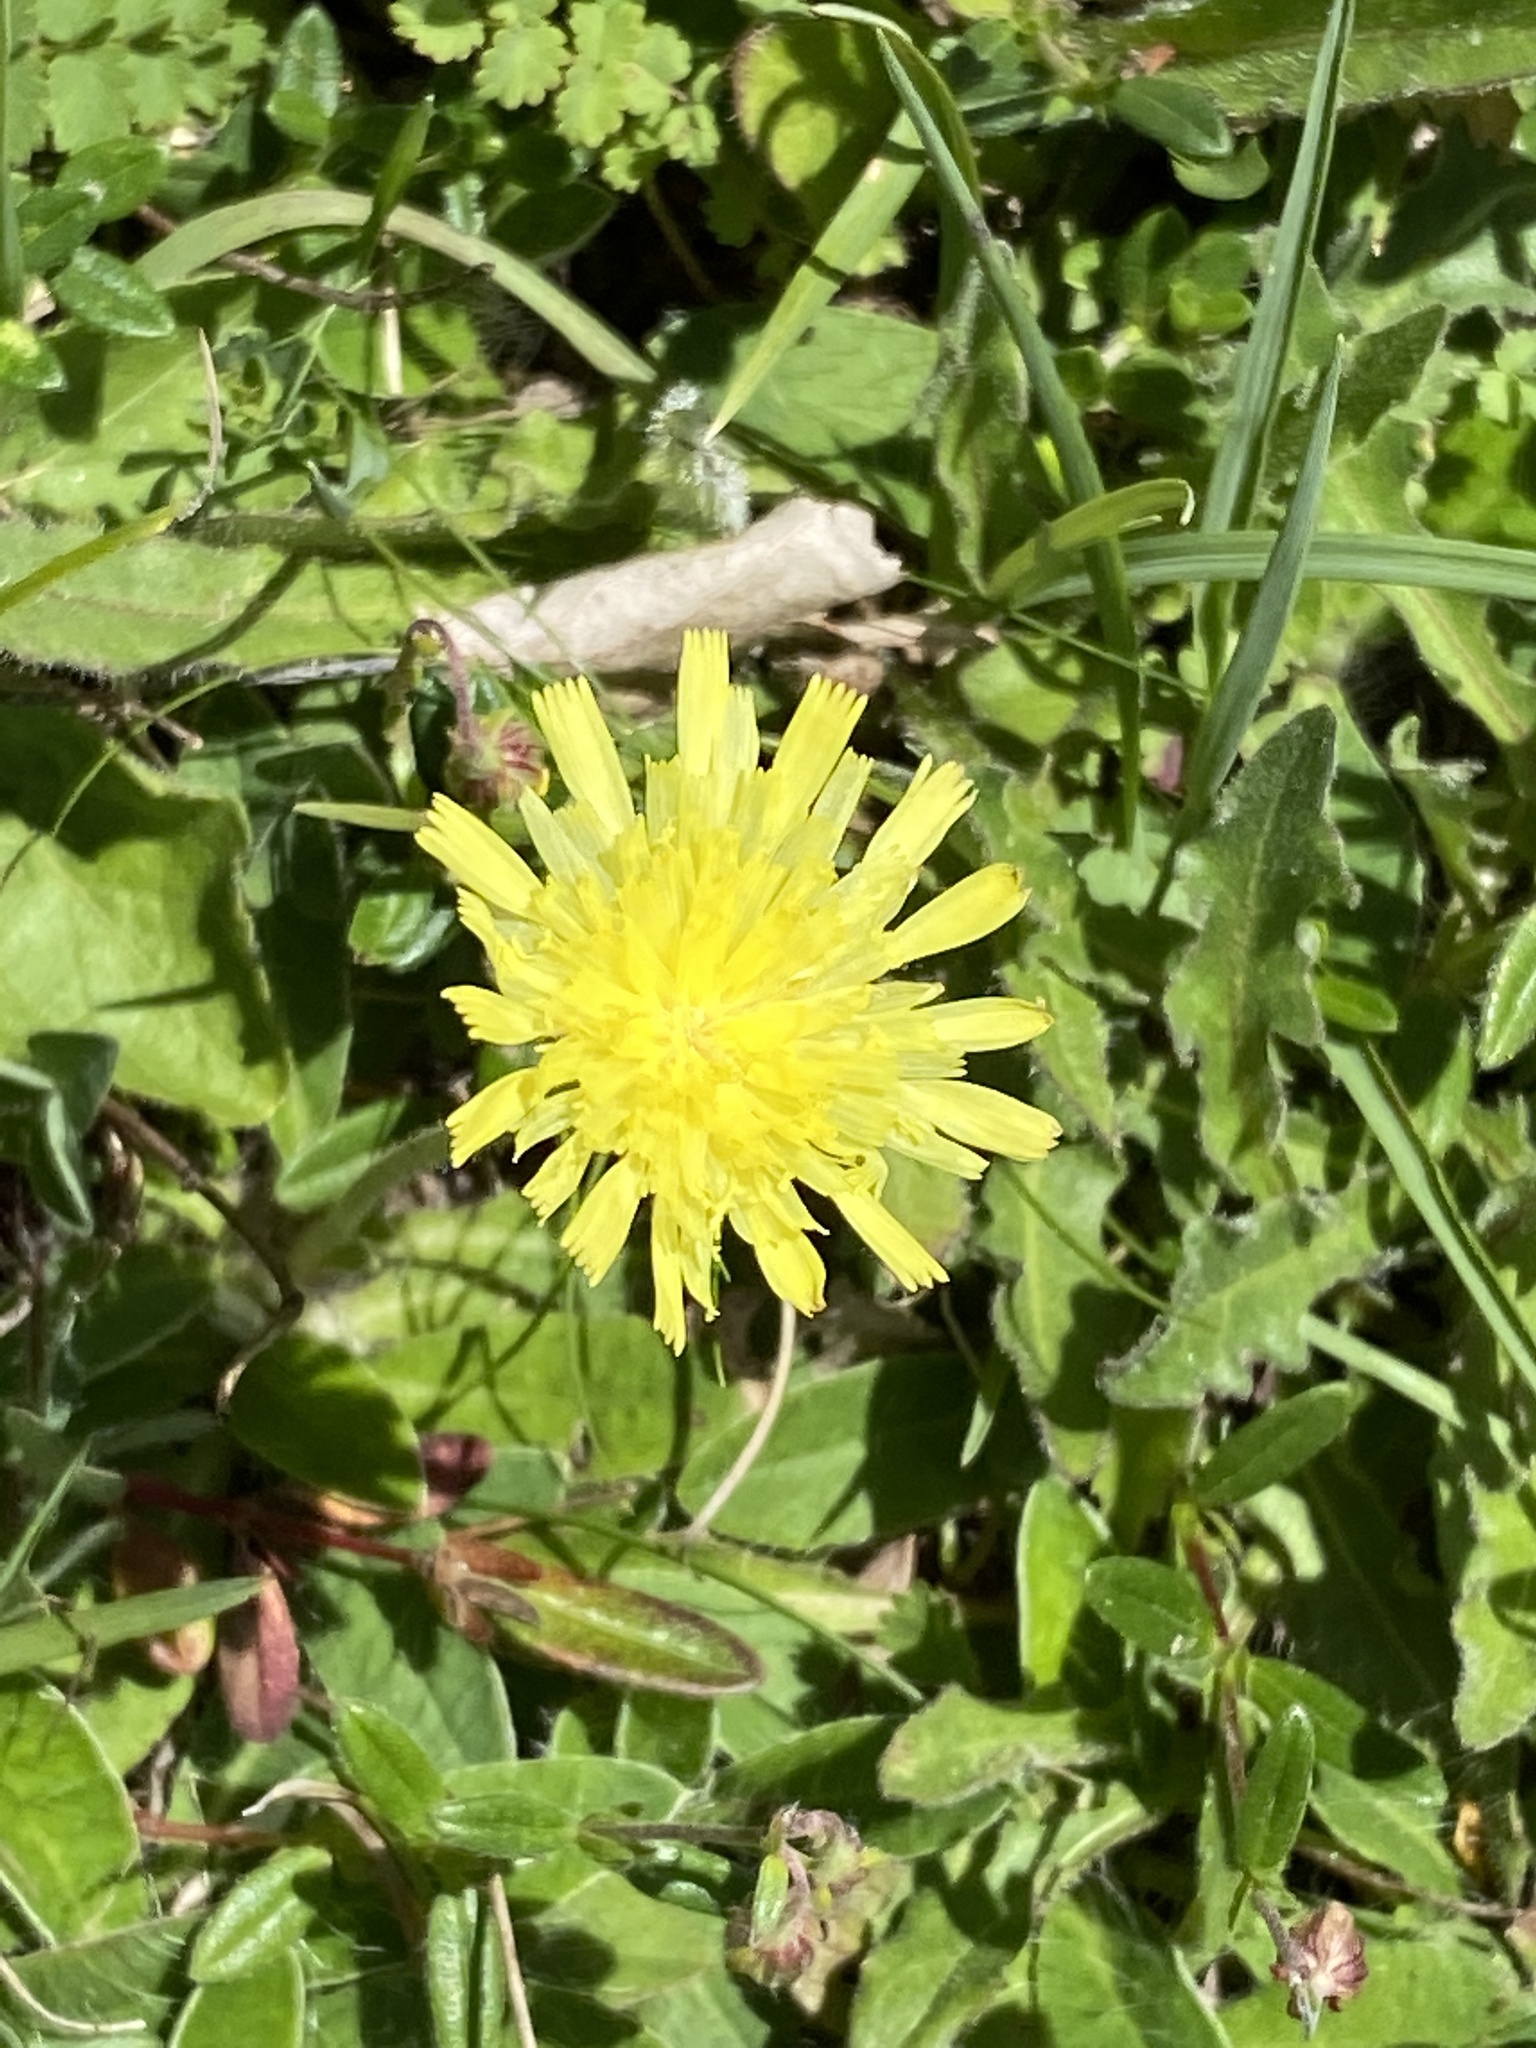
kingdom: Plantae
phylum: Tracheophyta
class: Magnoliopsida
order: Asterales
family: Asteraceae
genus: Pilosella
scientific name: Pilosella officinarum
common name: Mouse-ear hawkweed
